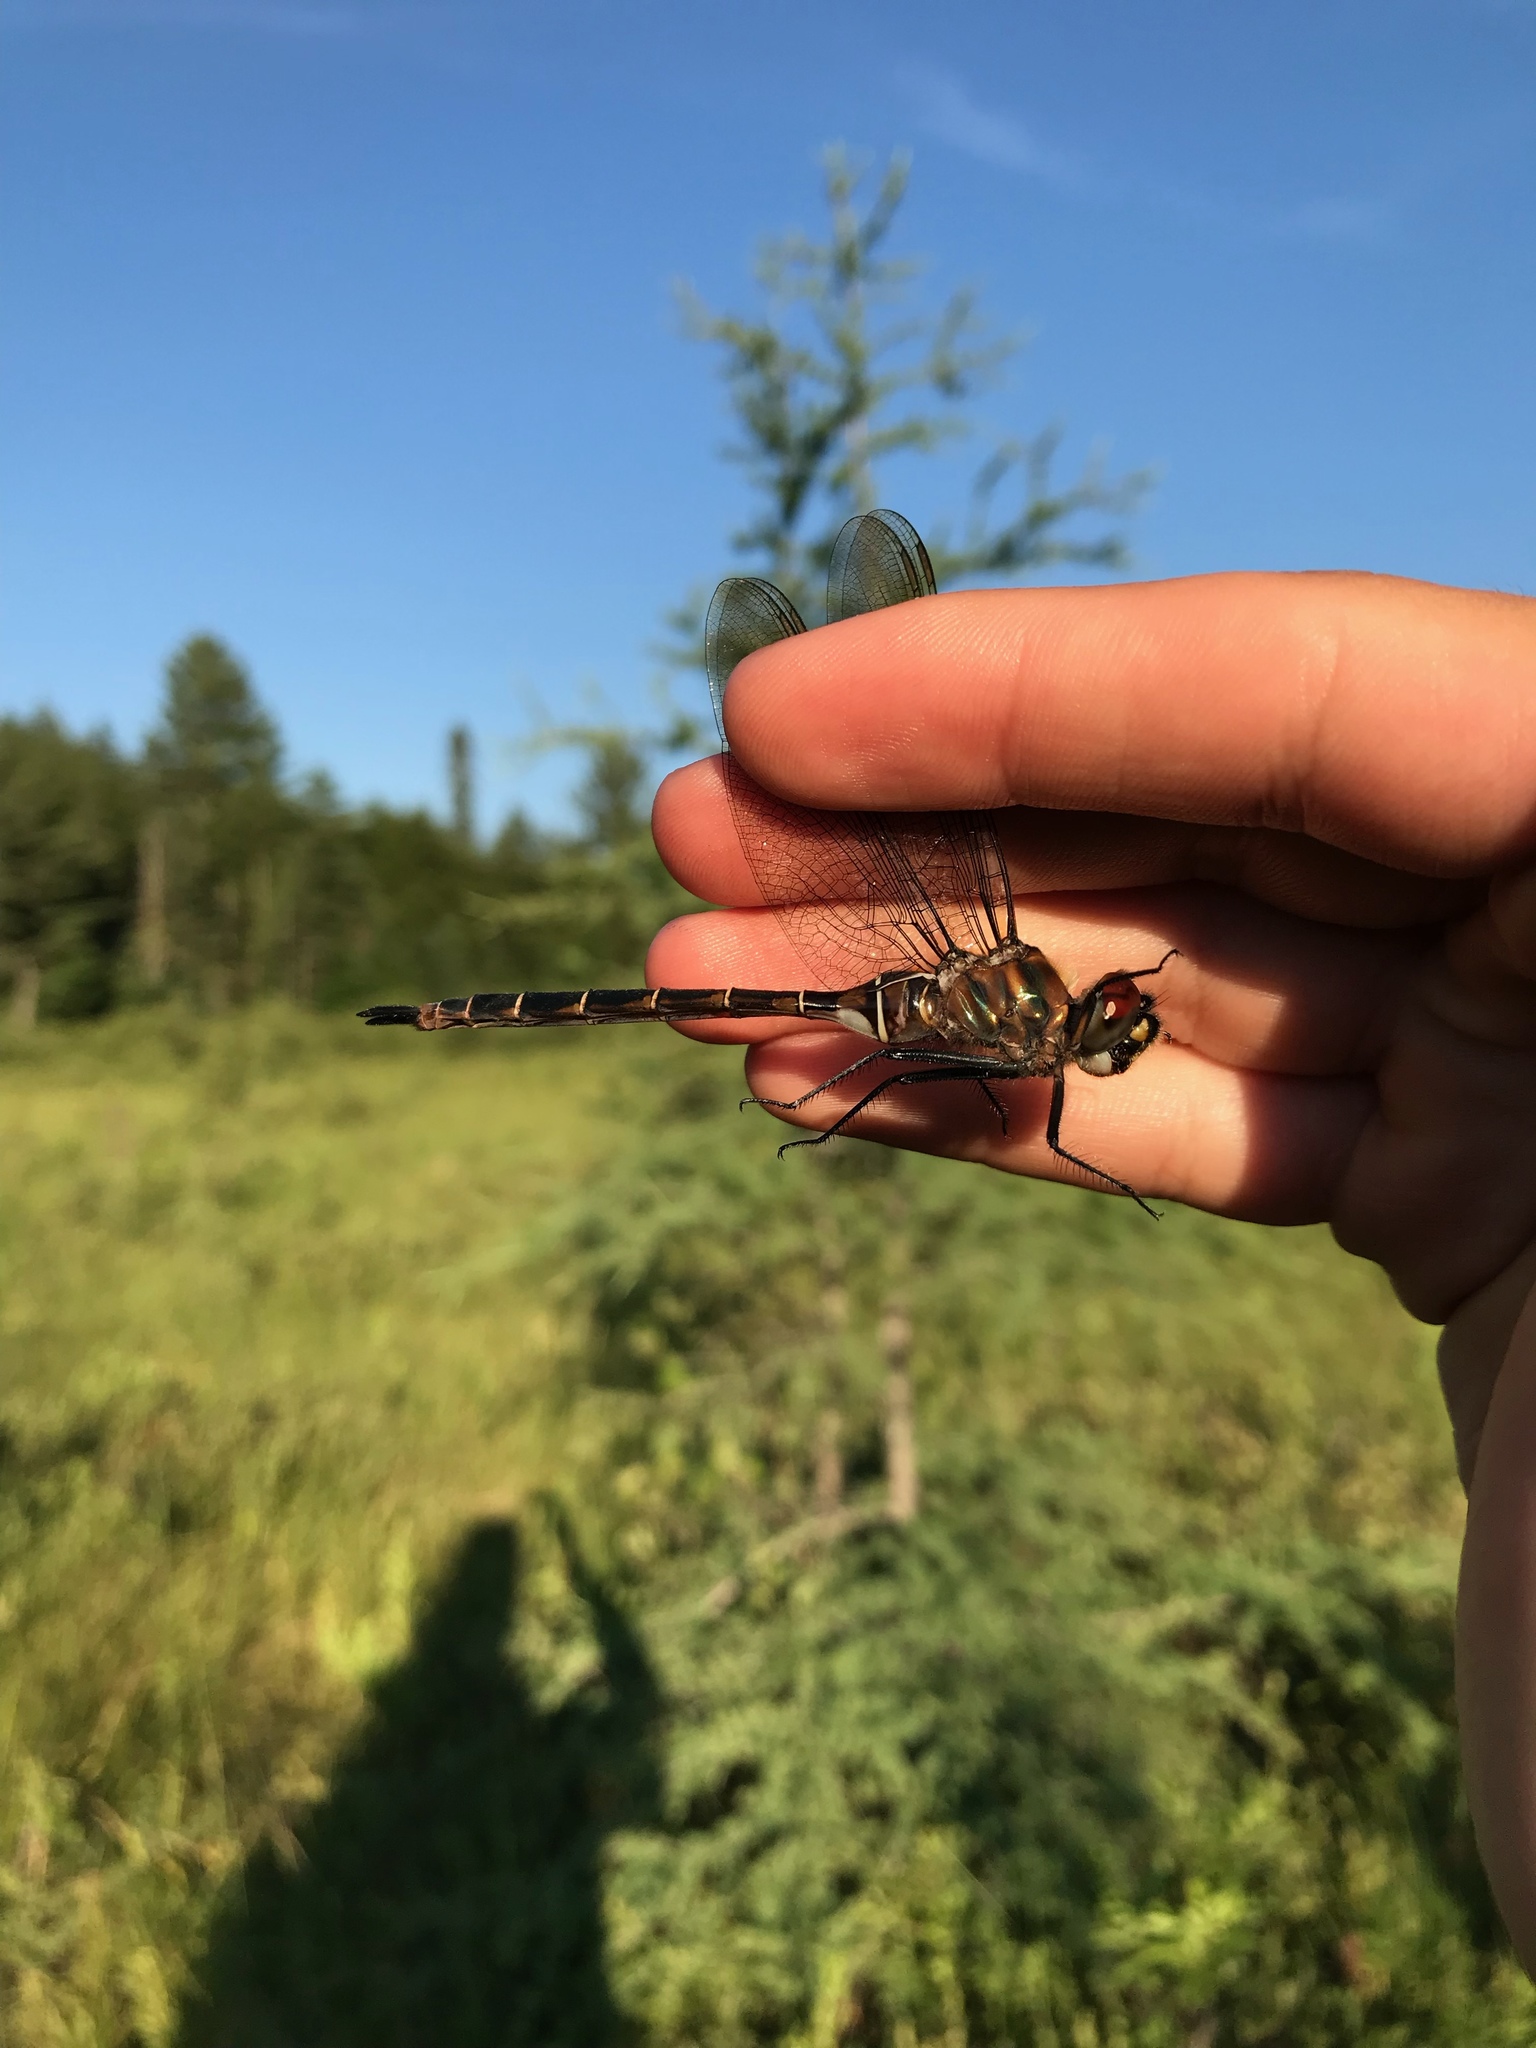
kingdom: Animalia
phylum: Arthropoda
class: Insecta
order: Odonata
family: Corduliidae
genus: Somatochlora
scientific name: Somatochlora cingulata
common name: Lake emerald
